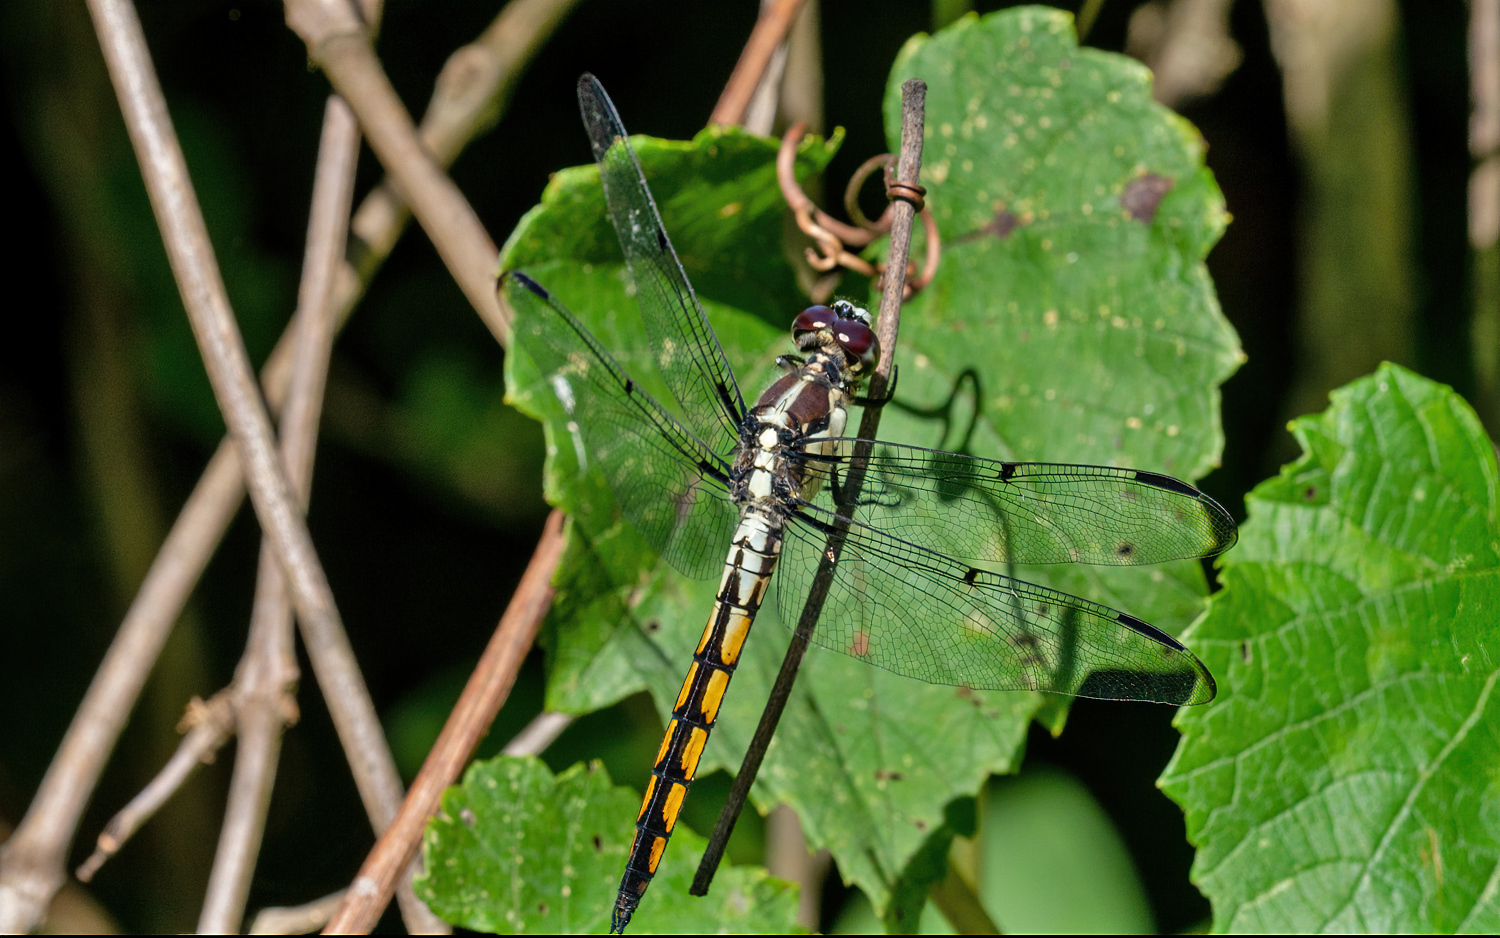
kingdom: Animalia
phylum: Arthropoda
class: Insecta
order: Odonata
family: Libellulidae
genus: Libellula
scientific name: Libellula vibrans
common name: Great blue skimmer
